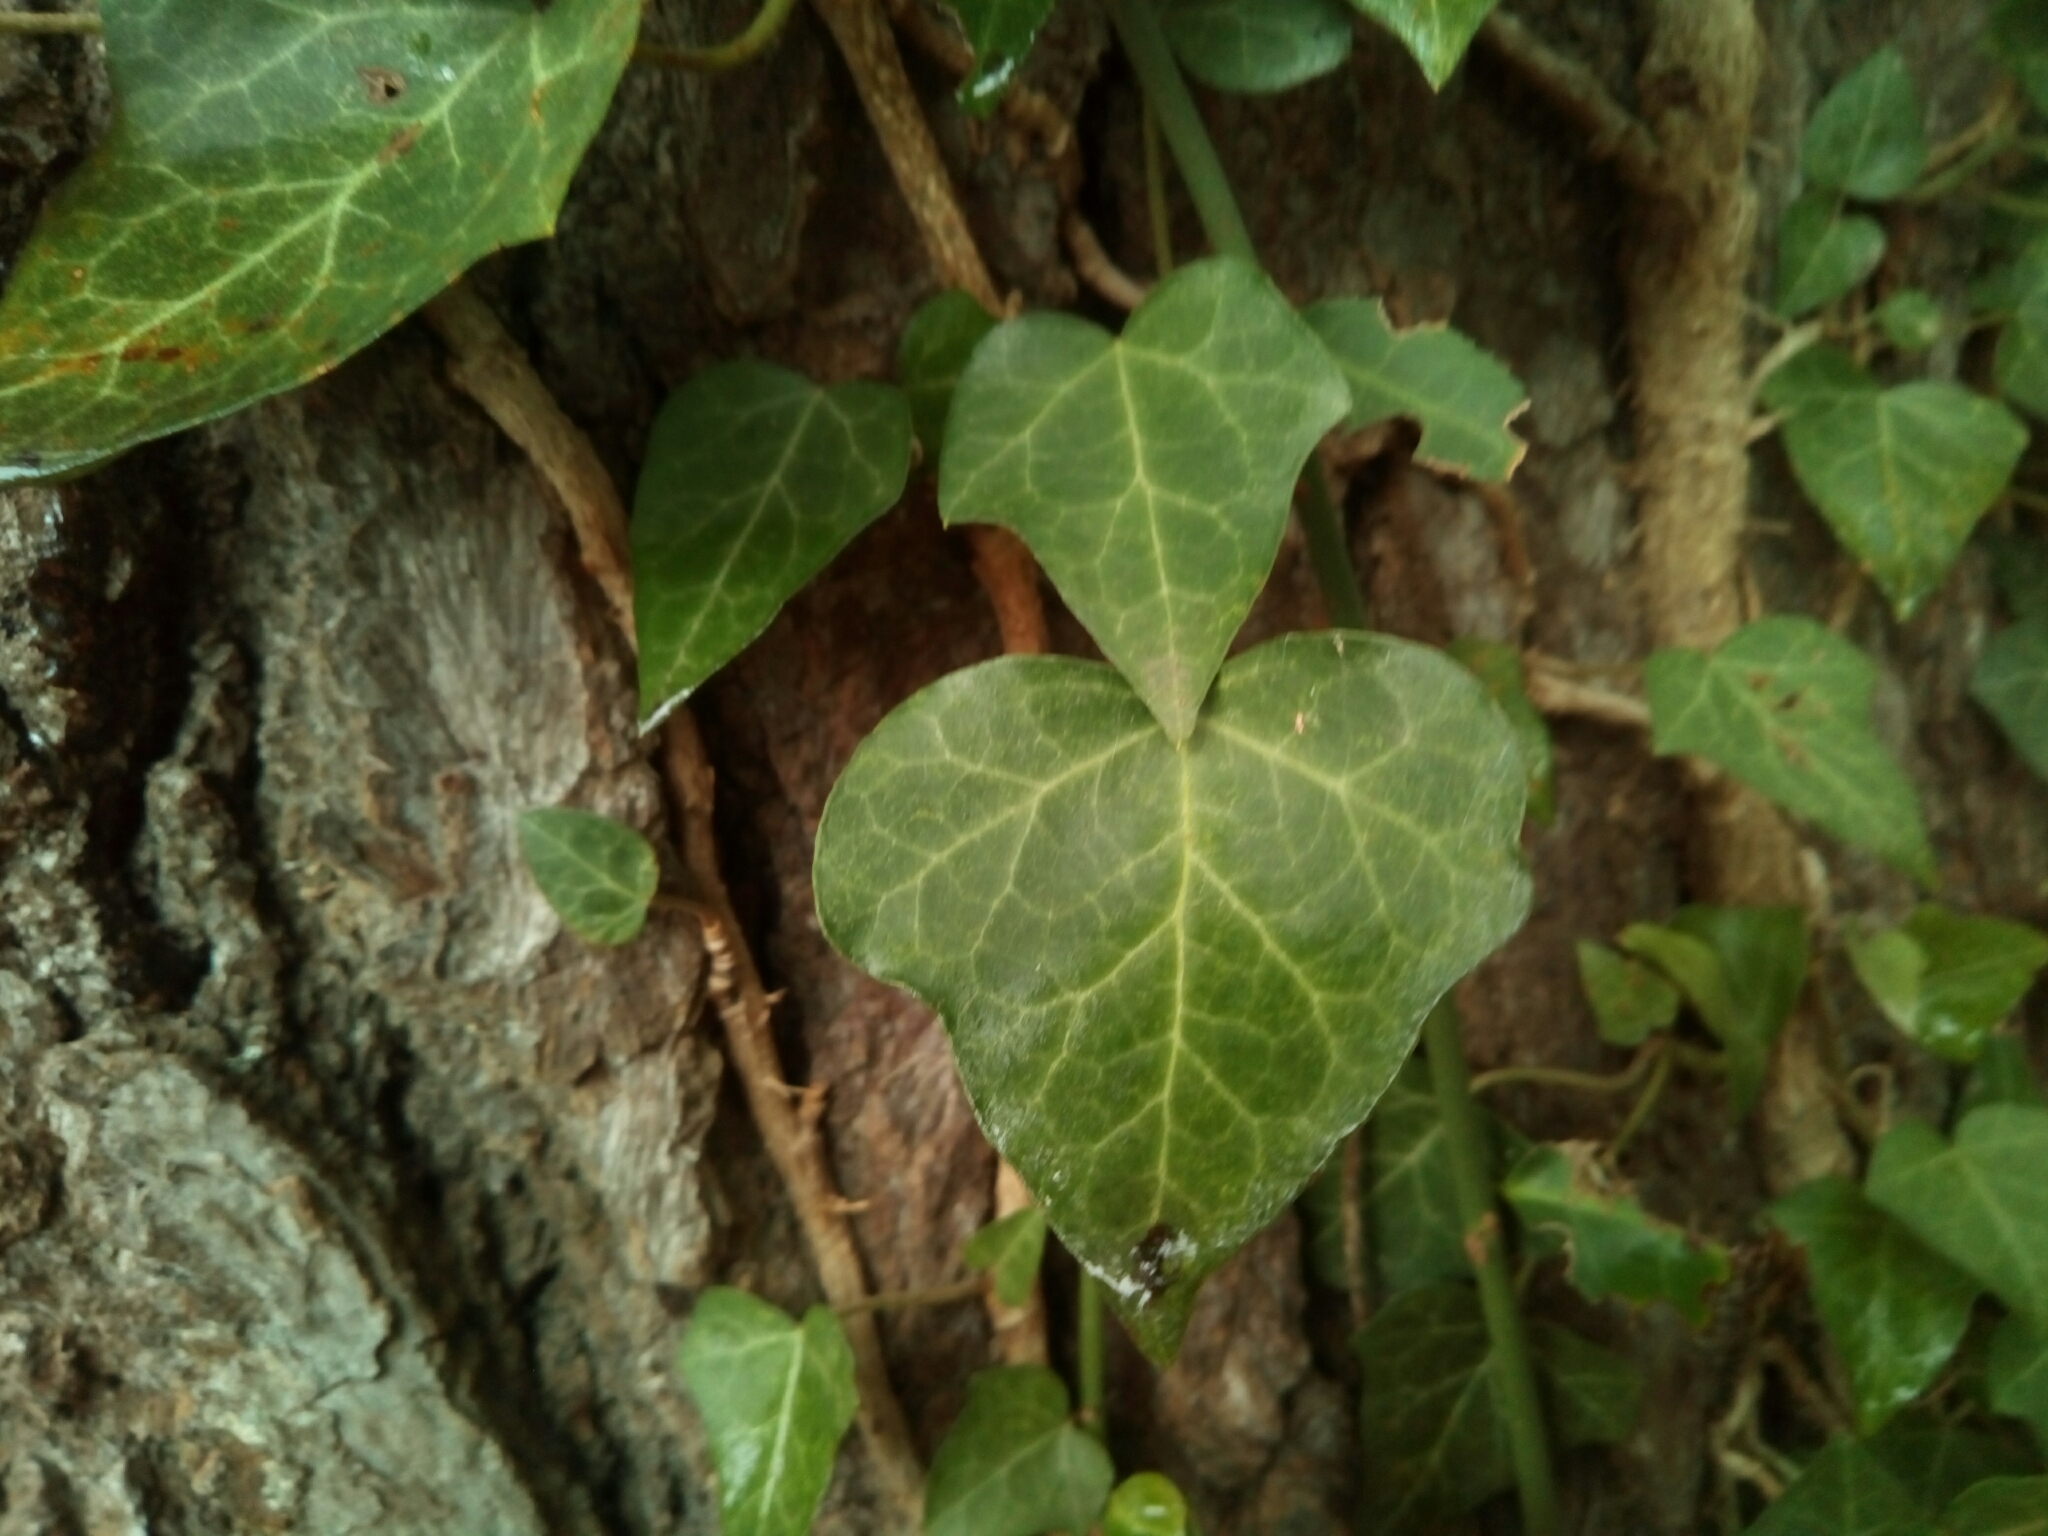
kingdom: Plantae
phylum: Tracheophyta
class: Magnoliopsida
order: Apiales
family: Araliaceae
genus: Hedera
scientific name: Hedera helix
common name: Ivy
